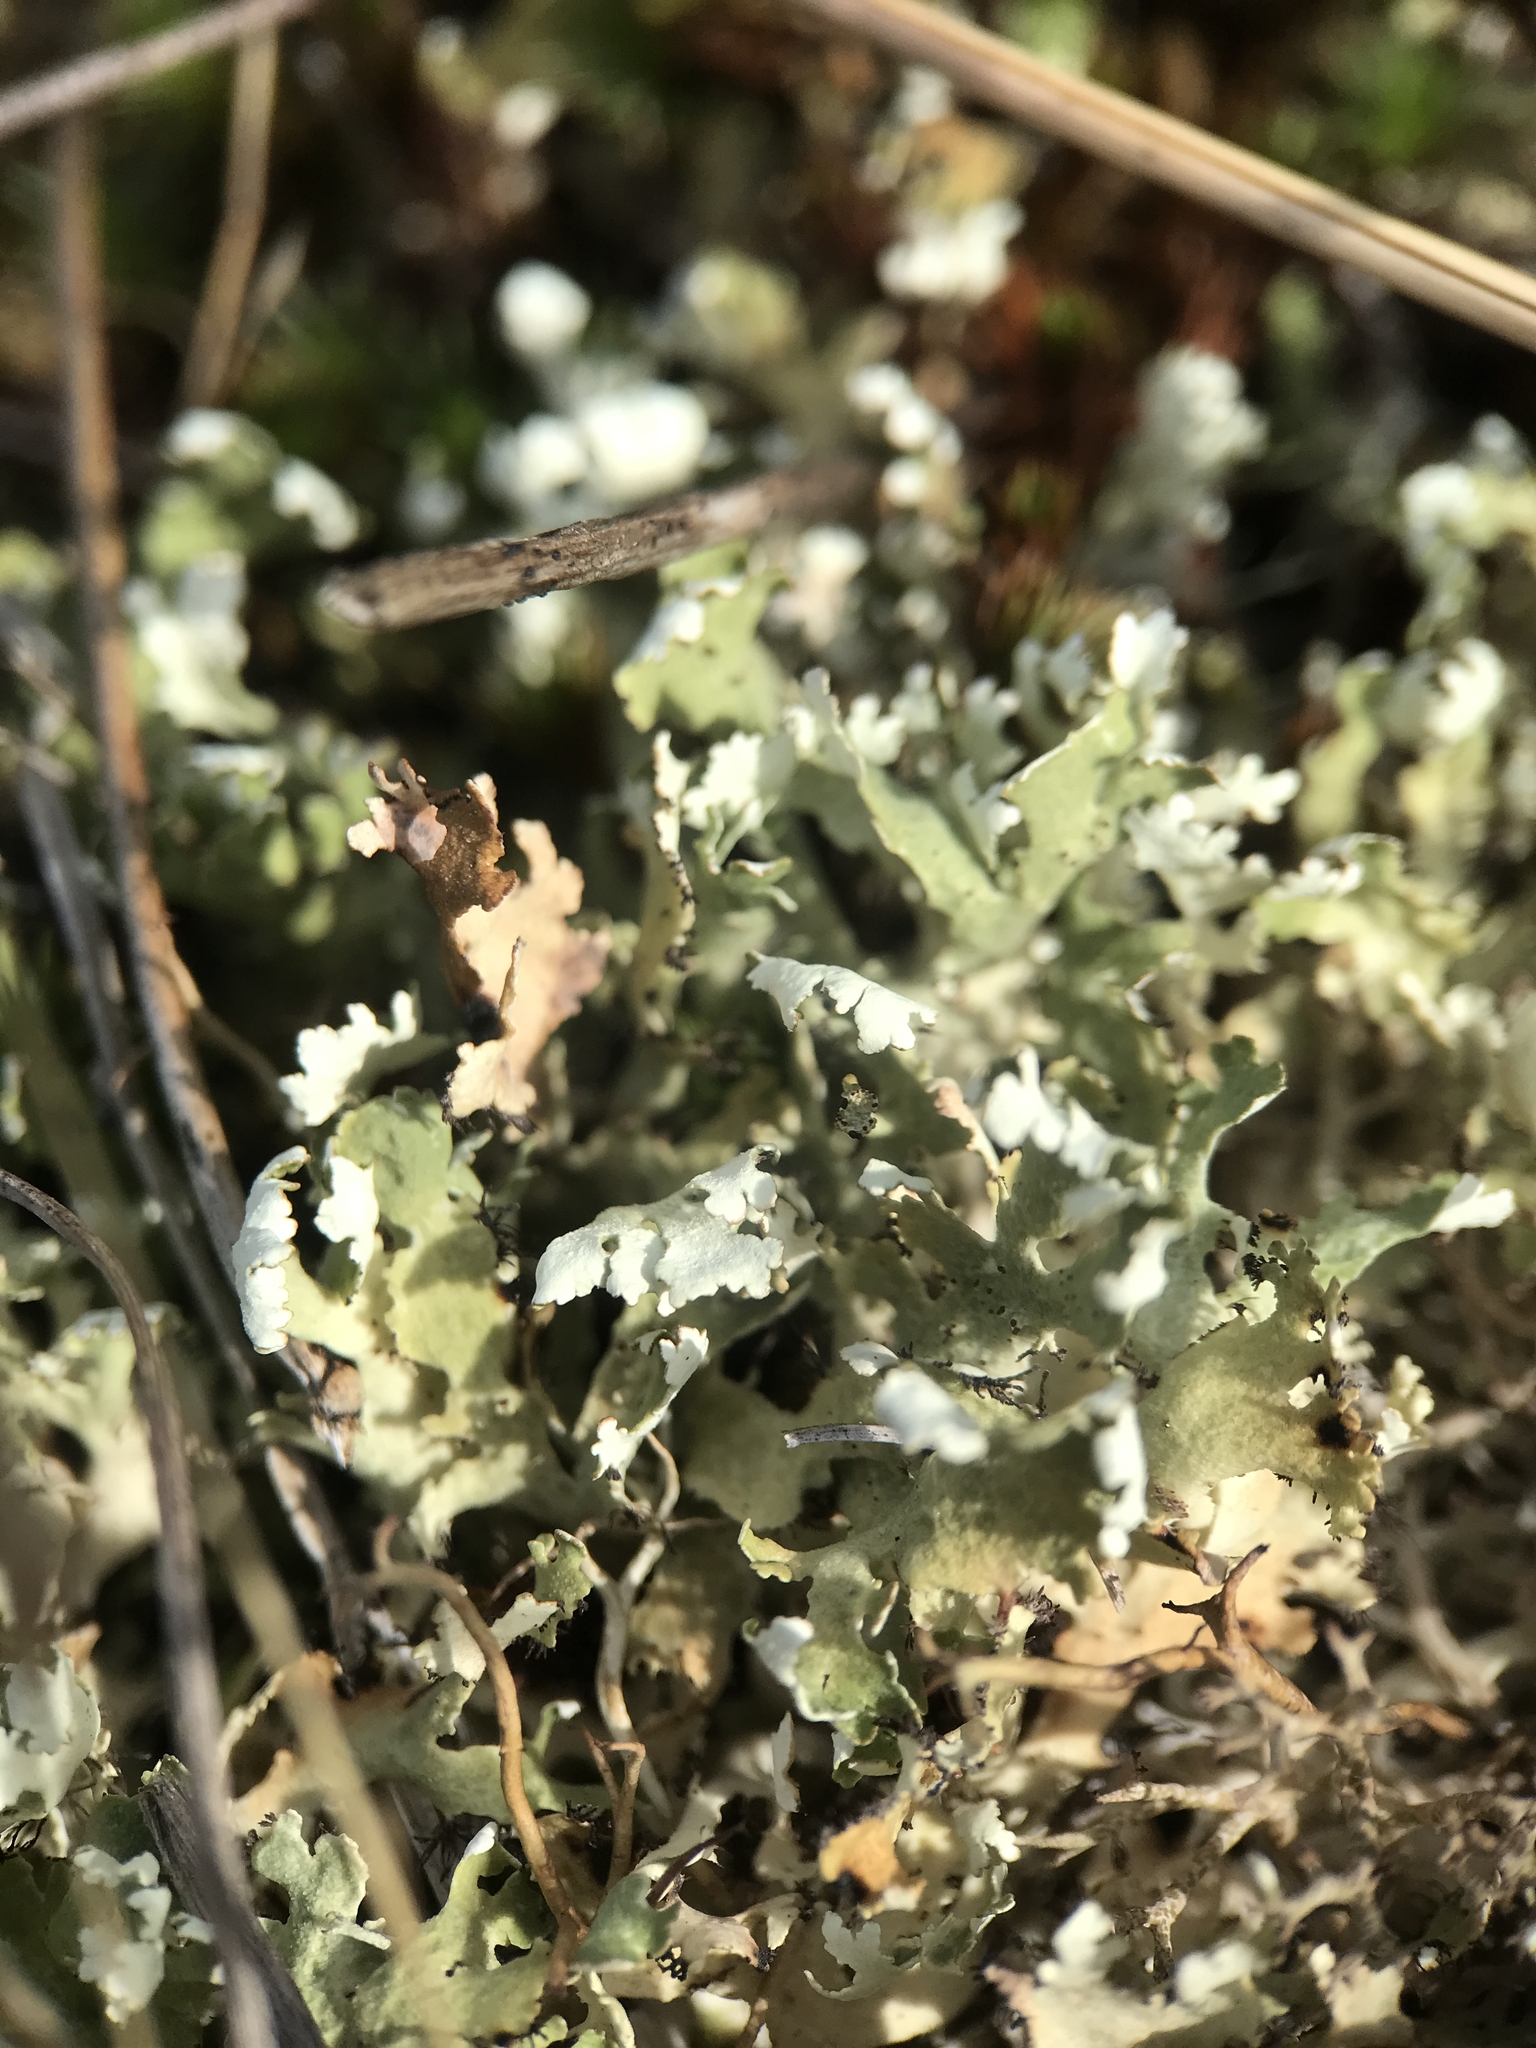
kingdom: Fungi
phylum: Ascomycota
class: Lecanoromycetes
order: Lecanorales
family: Cladoniaceae
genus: Cladonia
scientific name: Cladonia foliacea
